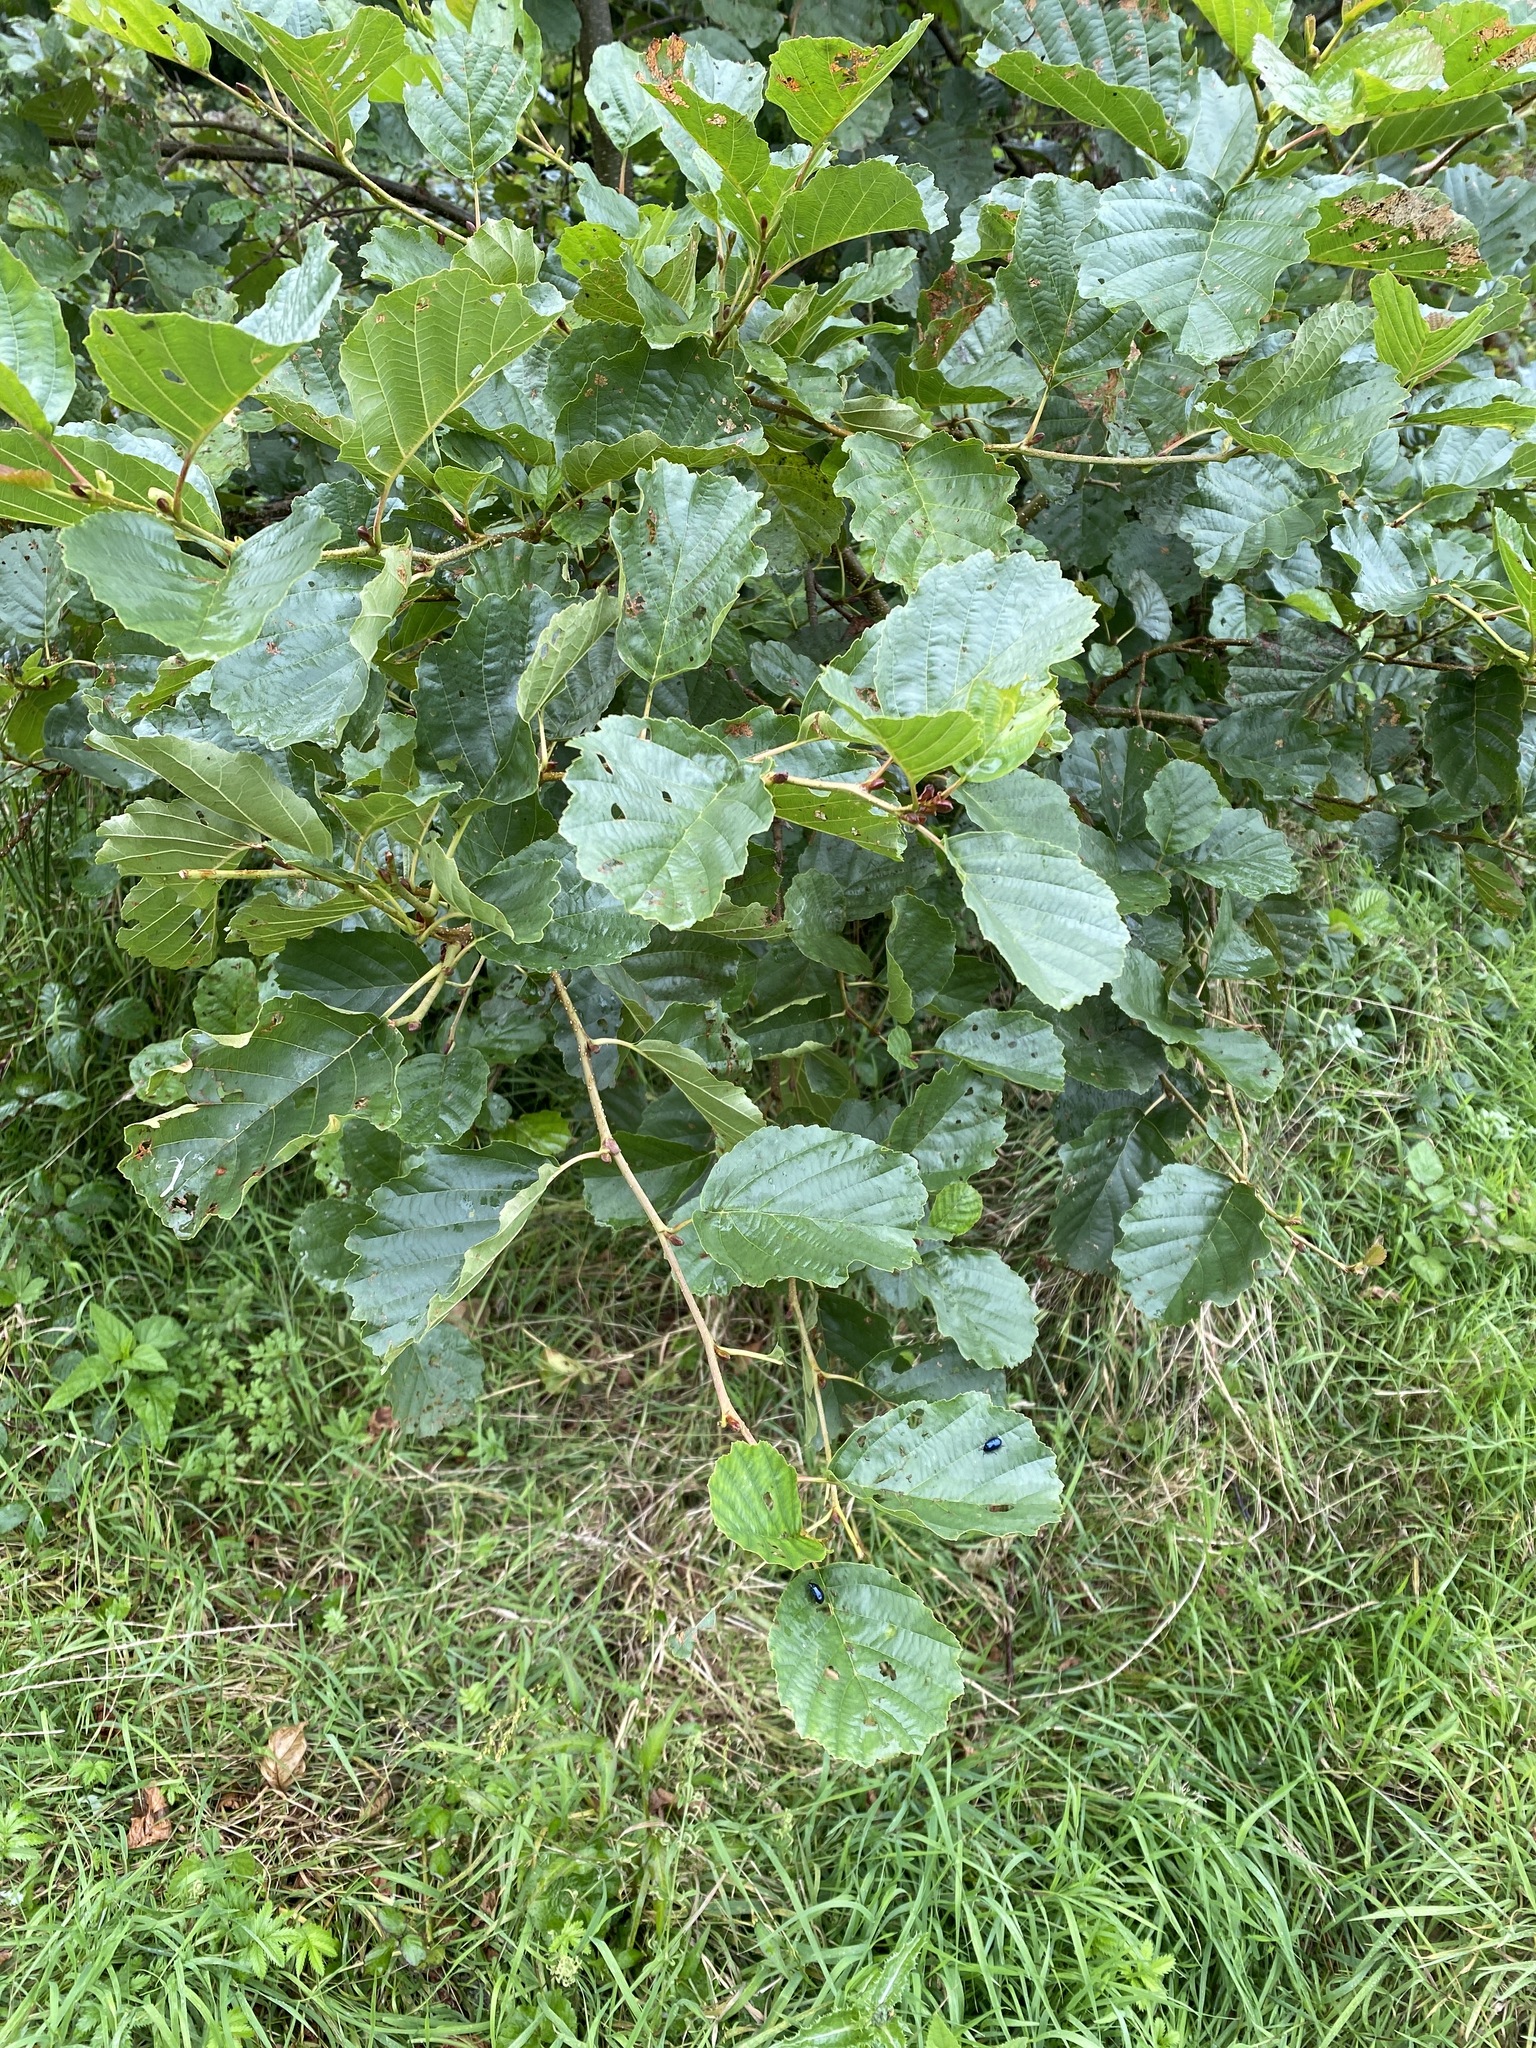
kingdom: Plantae
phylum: Tracheophyta
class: Magnoliopsida
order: Fagales
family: Betulaceae
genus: Alnus
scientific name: Alnus glutinosa
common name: Black alder
